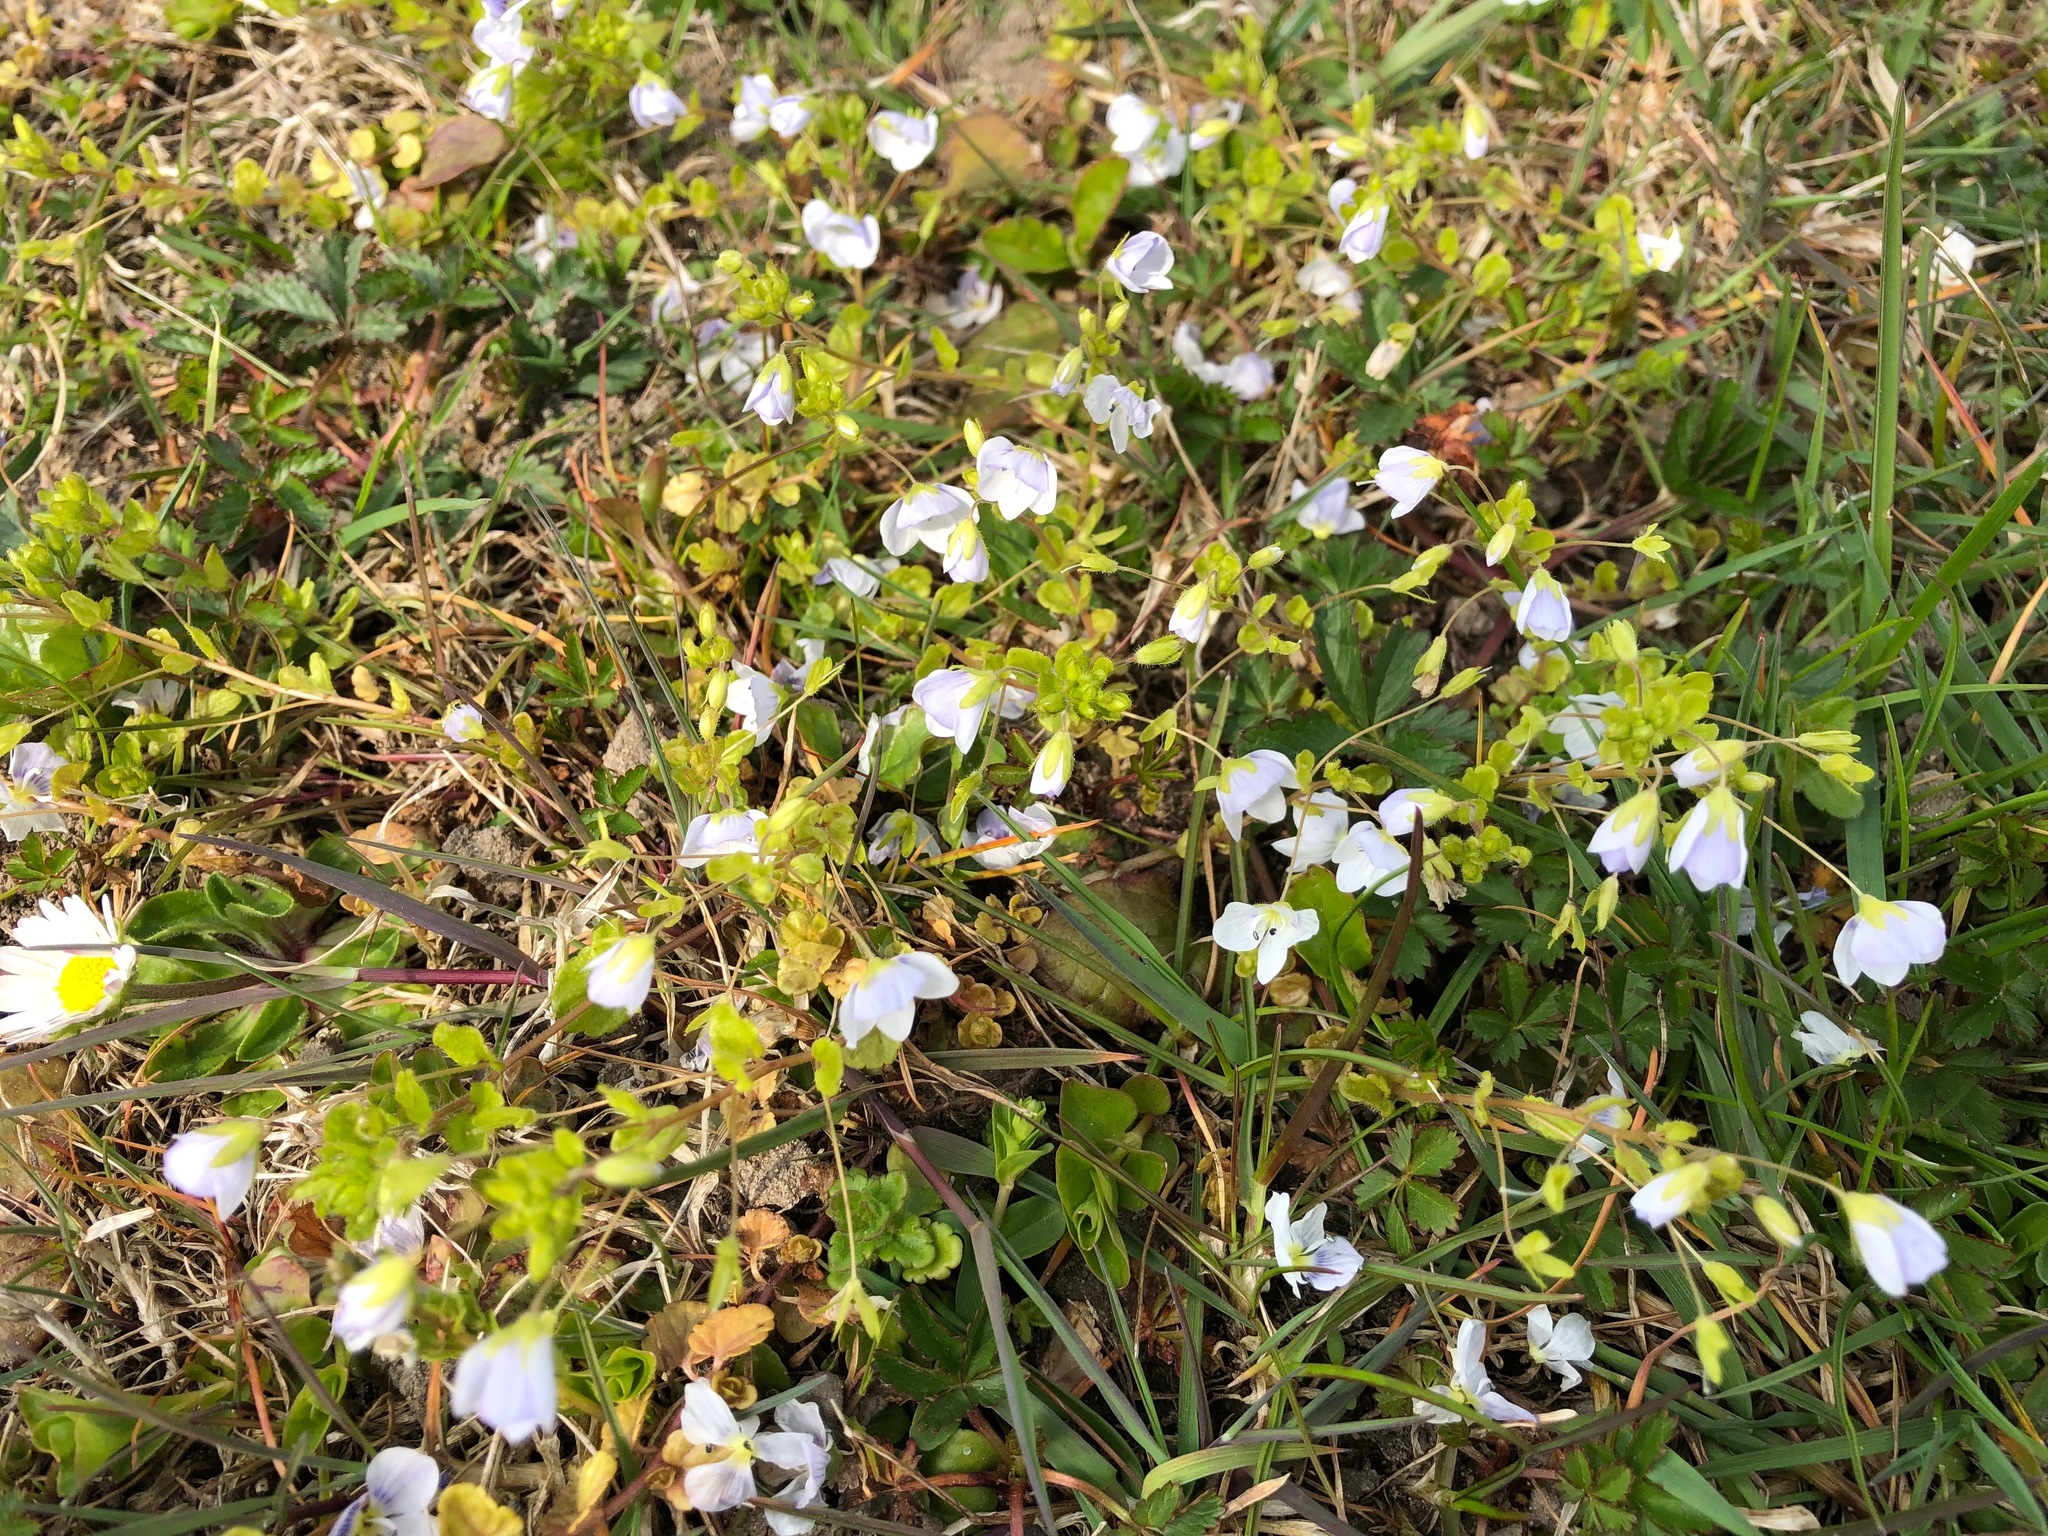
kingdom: Plantae
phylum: Tracheophyta
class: Magnoliopsida
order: Lamiales
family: Plantaginaceae
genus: Veronica
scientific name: Veronica filiformis
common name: Slender speedwell
